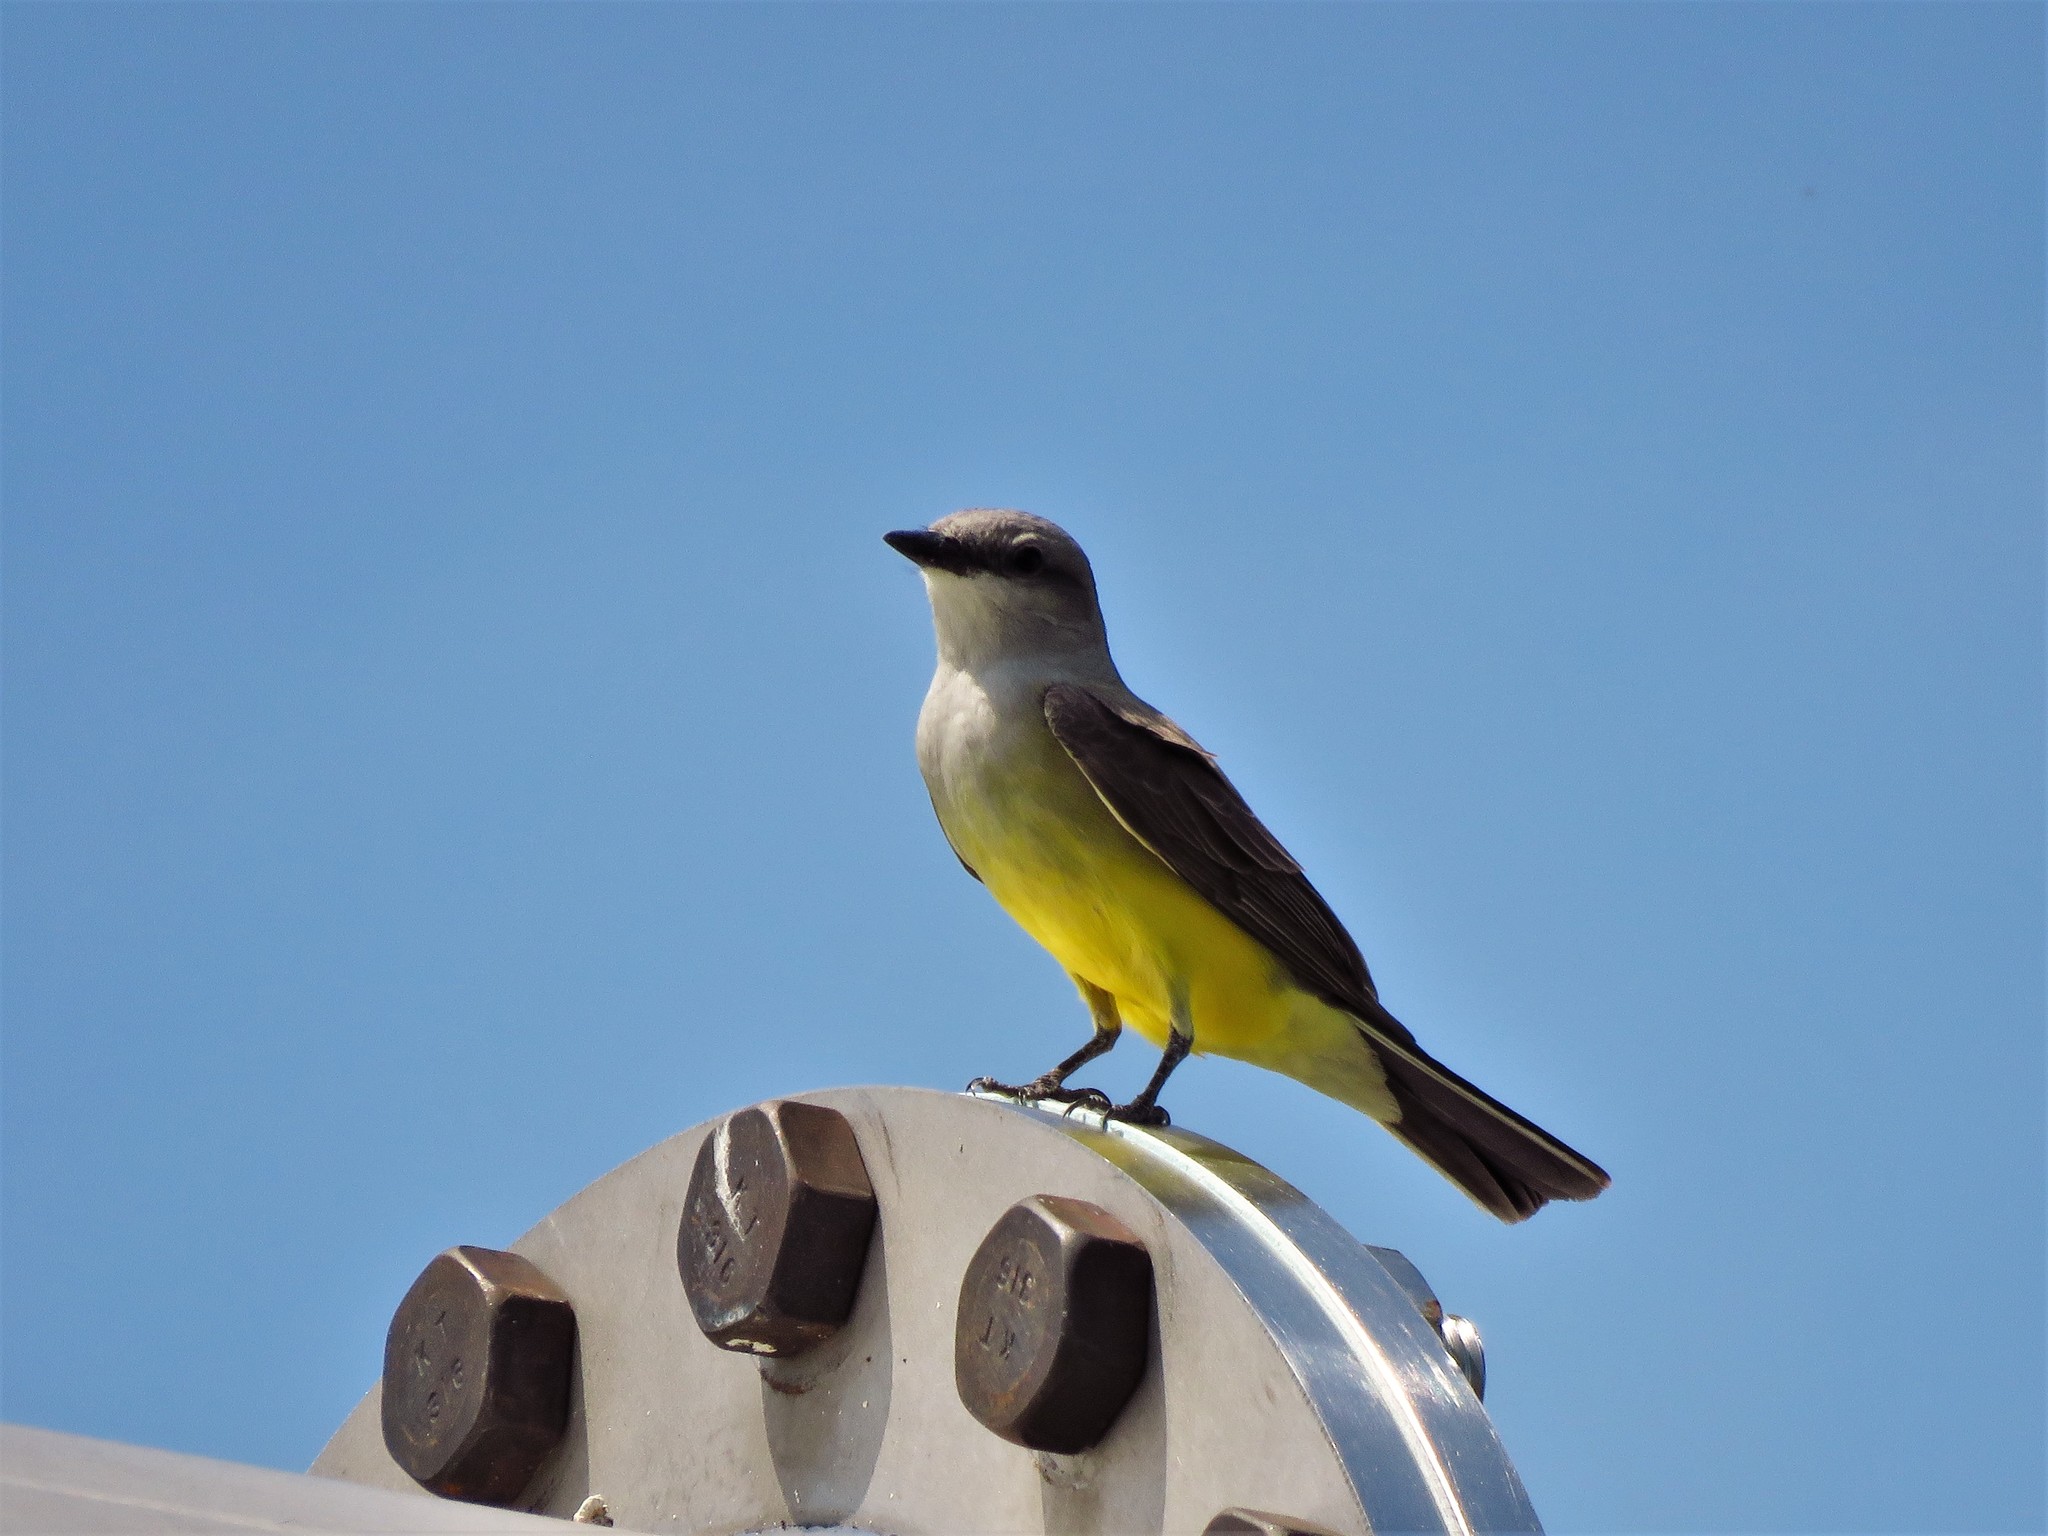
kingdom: Animalia
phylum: Chordata
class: Aves
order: Passeriformes
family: Tyrannidae
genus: Tyrannus
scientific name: Tyrannus verticalis
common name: Western kingbird
